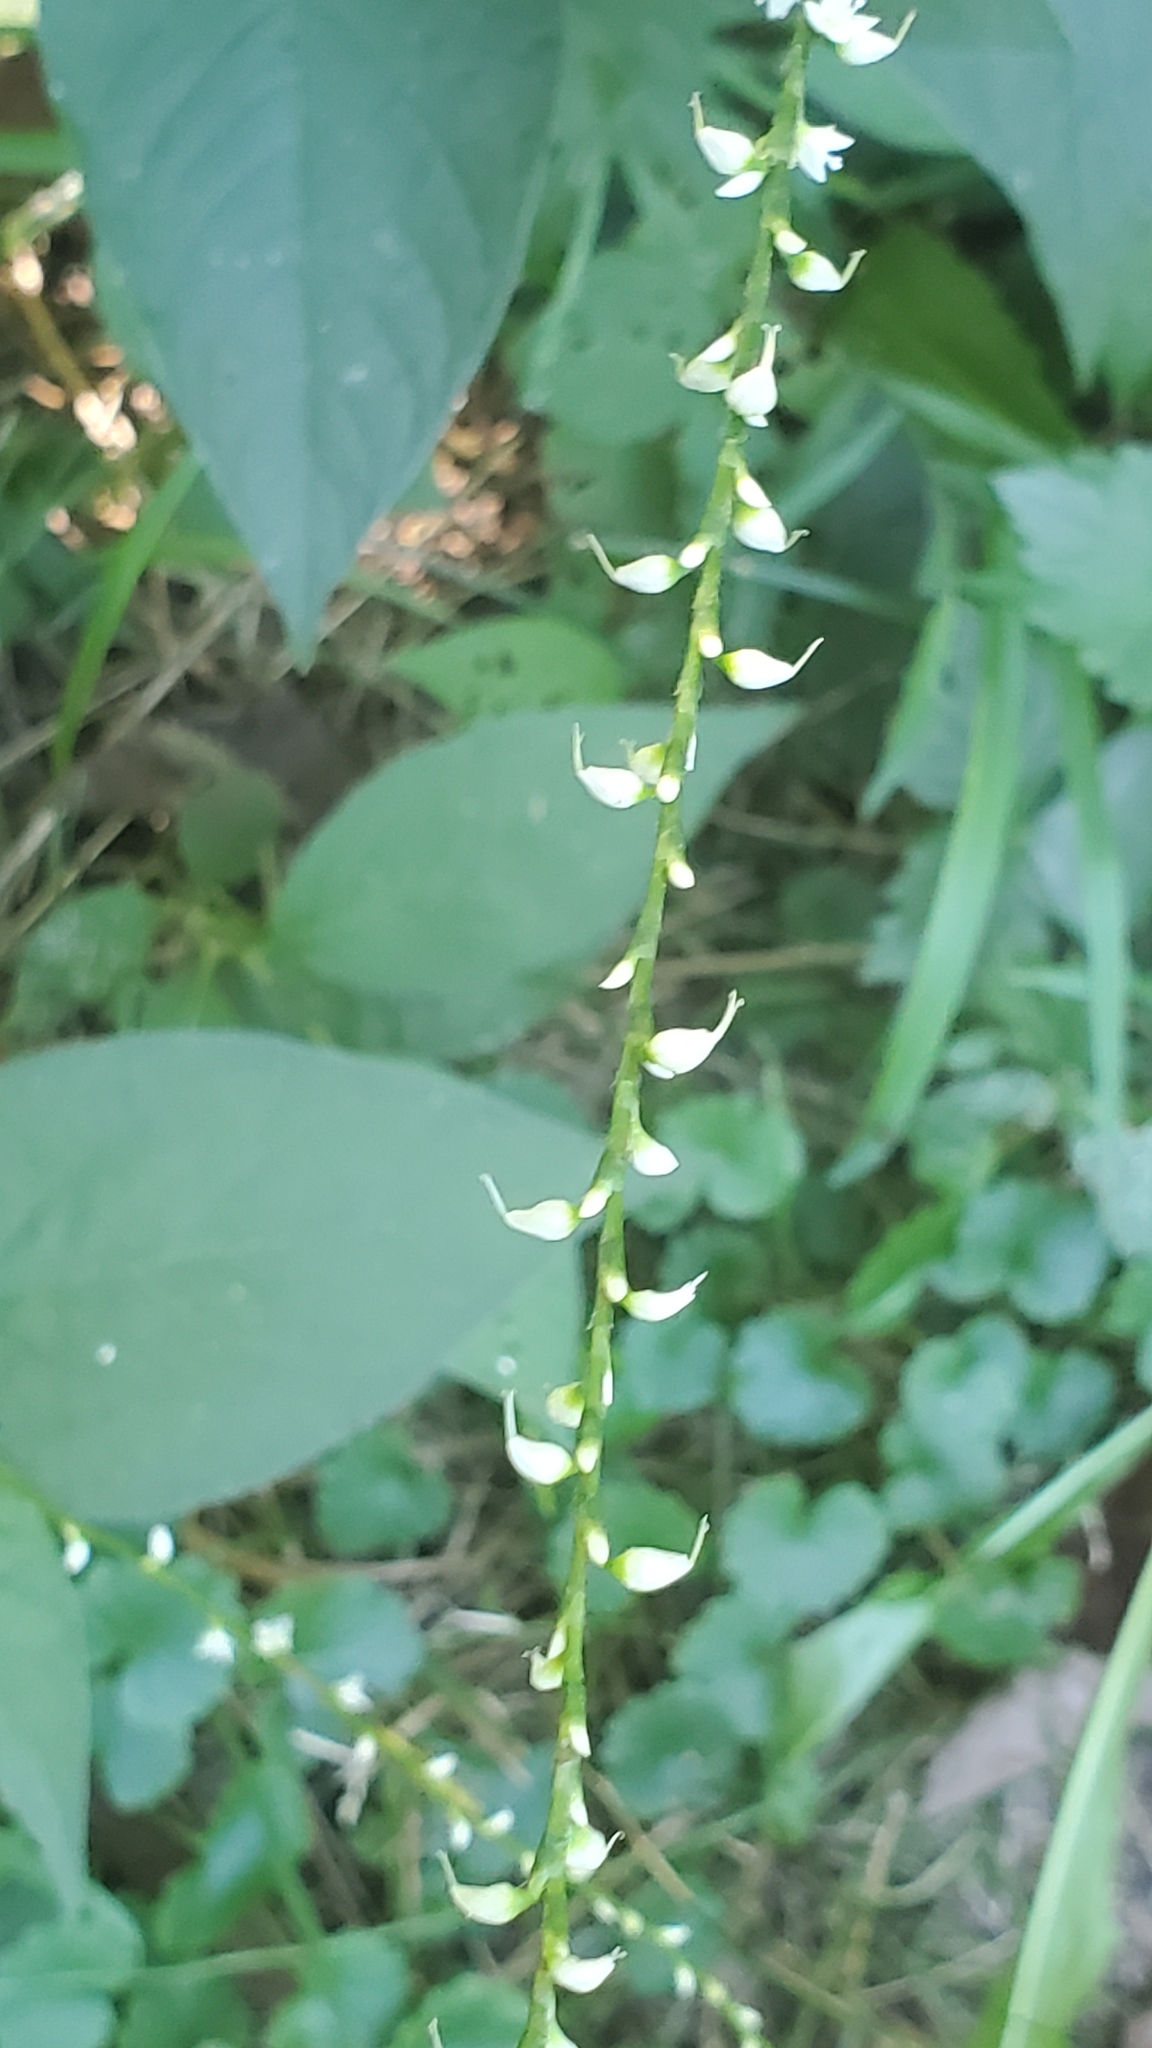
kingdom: Plantae
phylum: Tracheophyta
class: Magnoliopsida
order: Caryophyllales
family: Polygonaceae
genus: Persicaria
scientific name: Persicaria virginiana
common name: Jumpseed
